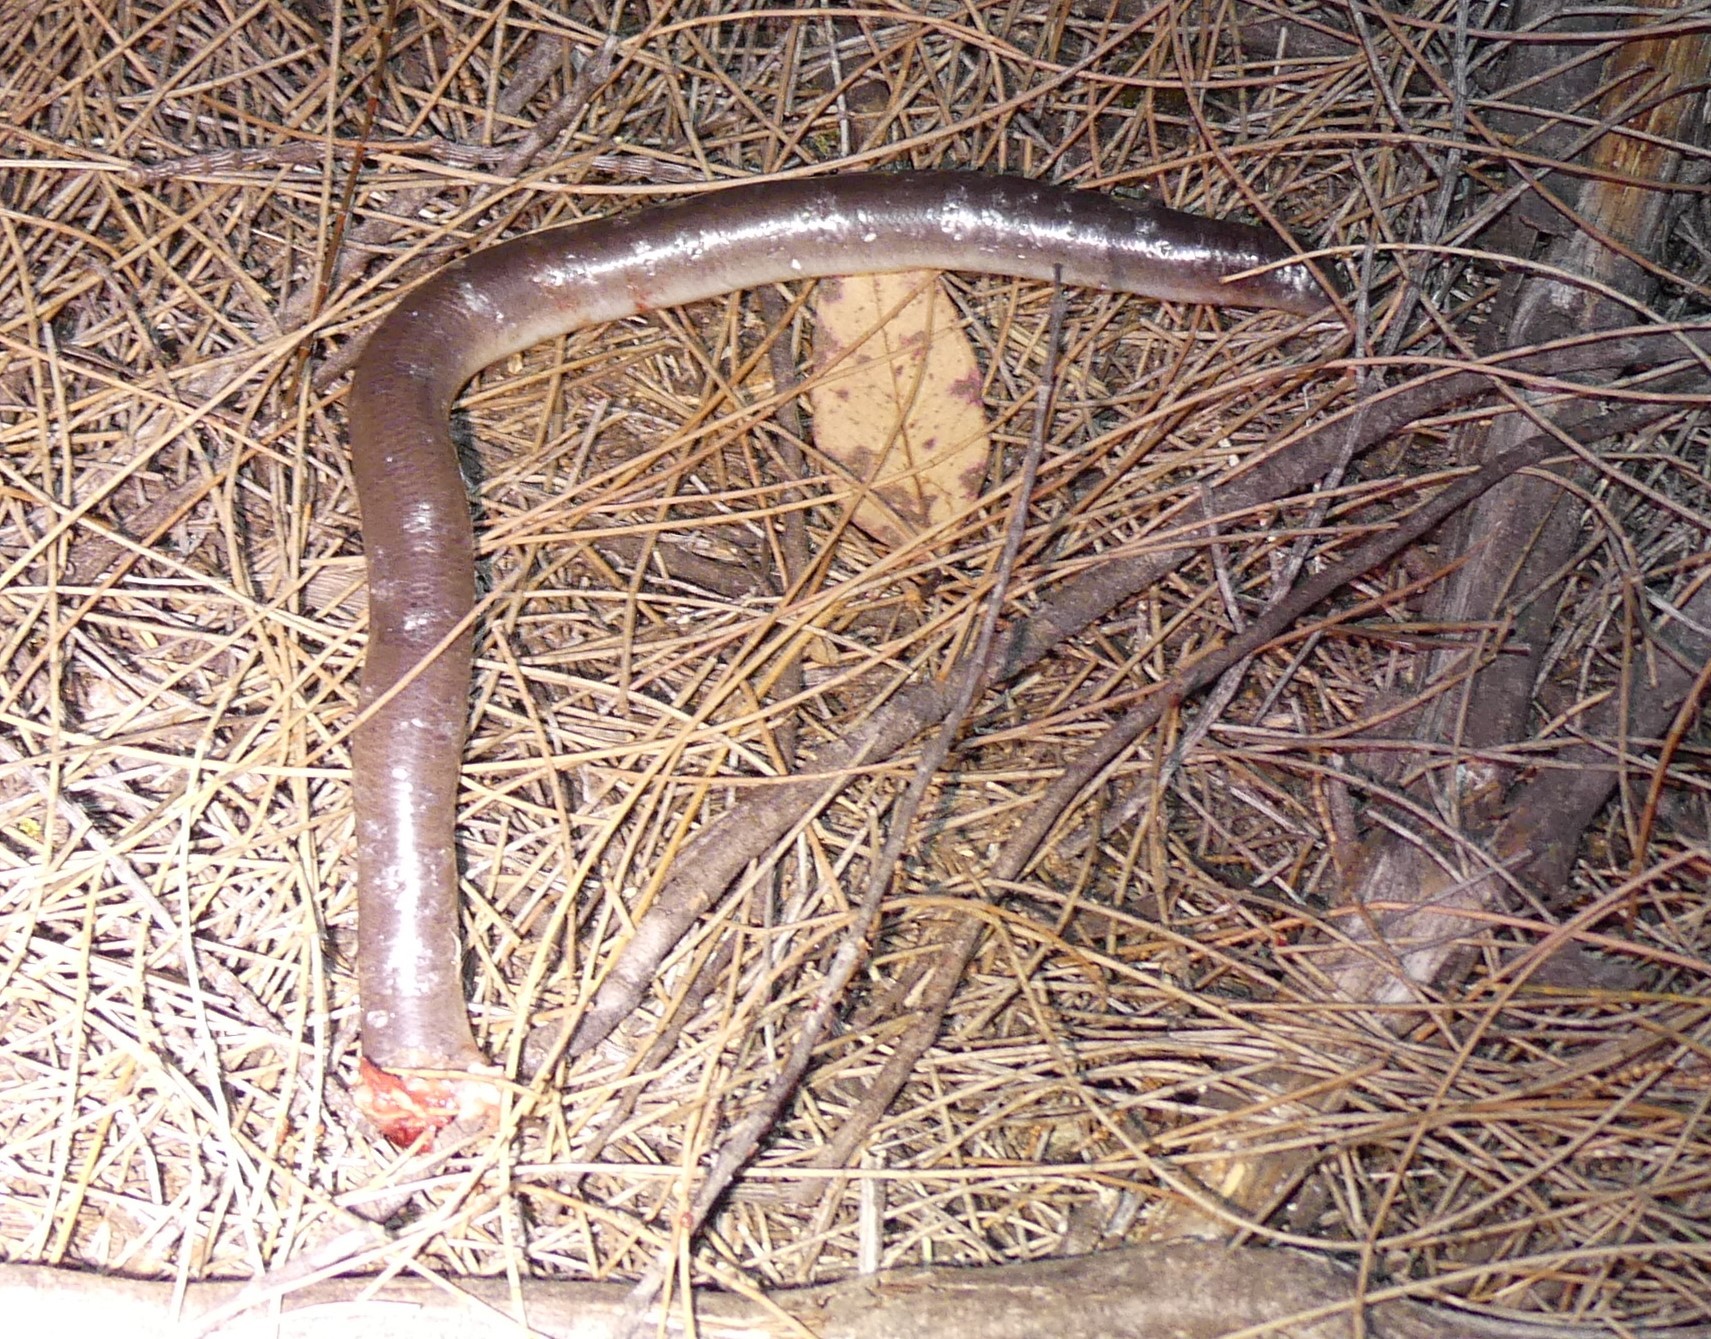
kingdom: Animalia
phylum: Chordata
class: Squamata
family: Typhlopidae
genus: Anilios
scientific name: Anilios pinguis
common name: Rotund blind snake
